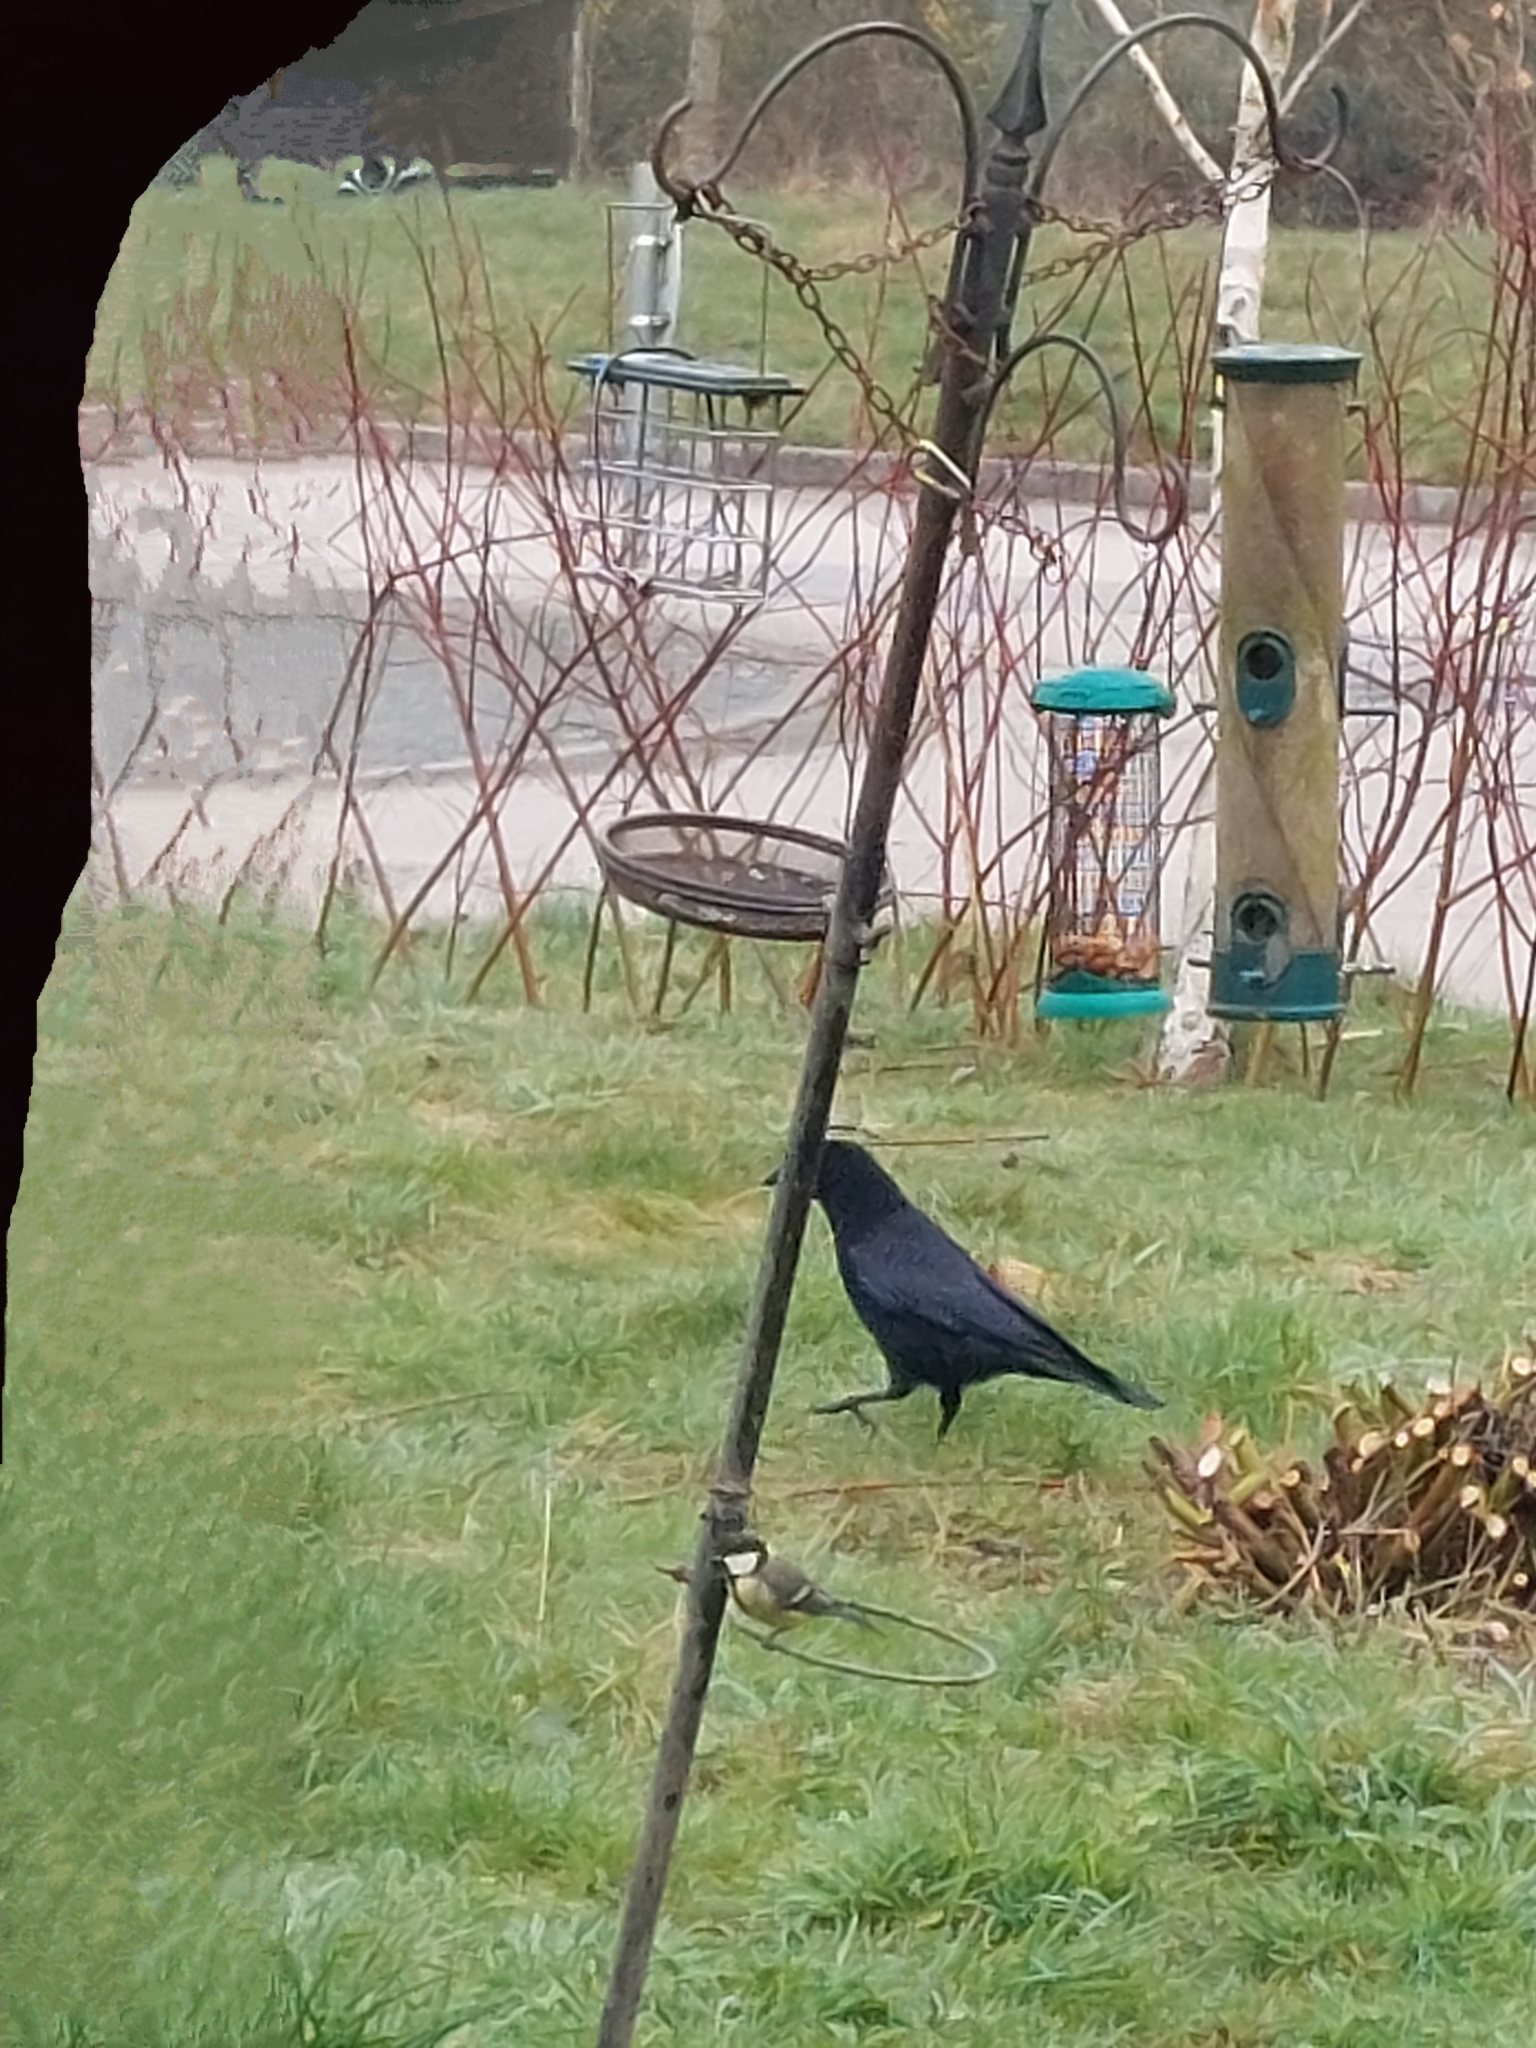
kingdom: Animalia
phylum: Chordata
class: Aves
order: Passeriformes
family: Corvidae
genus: Corvus
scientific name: Corvus corone
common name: Carrion crow
